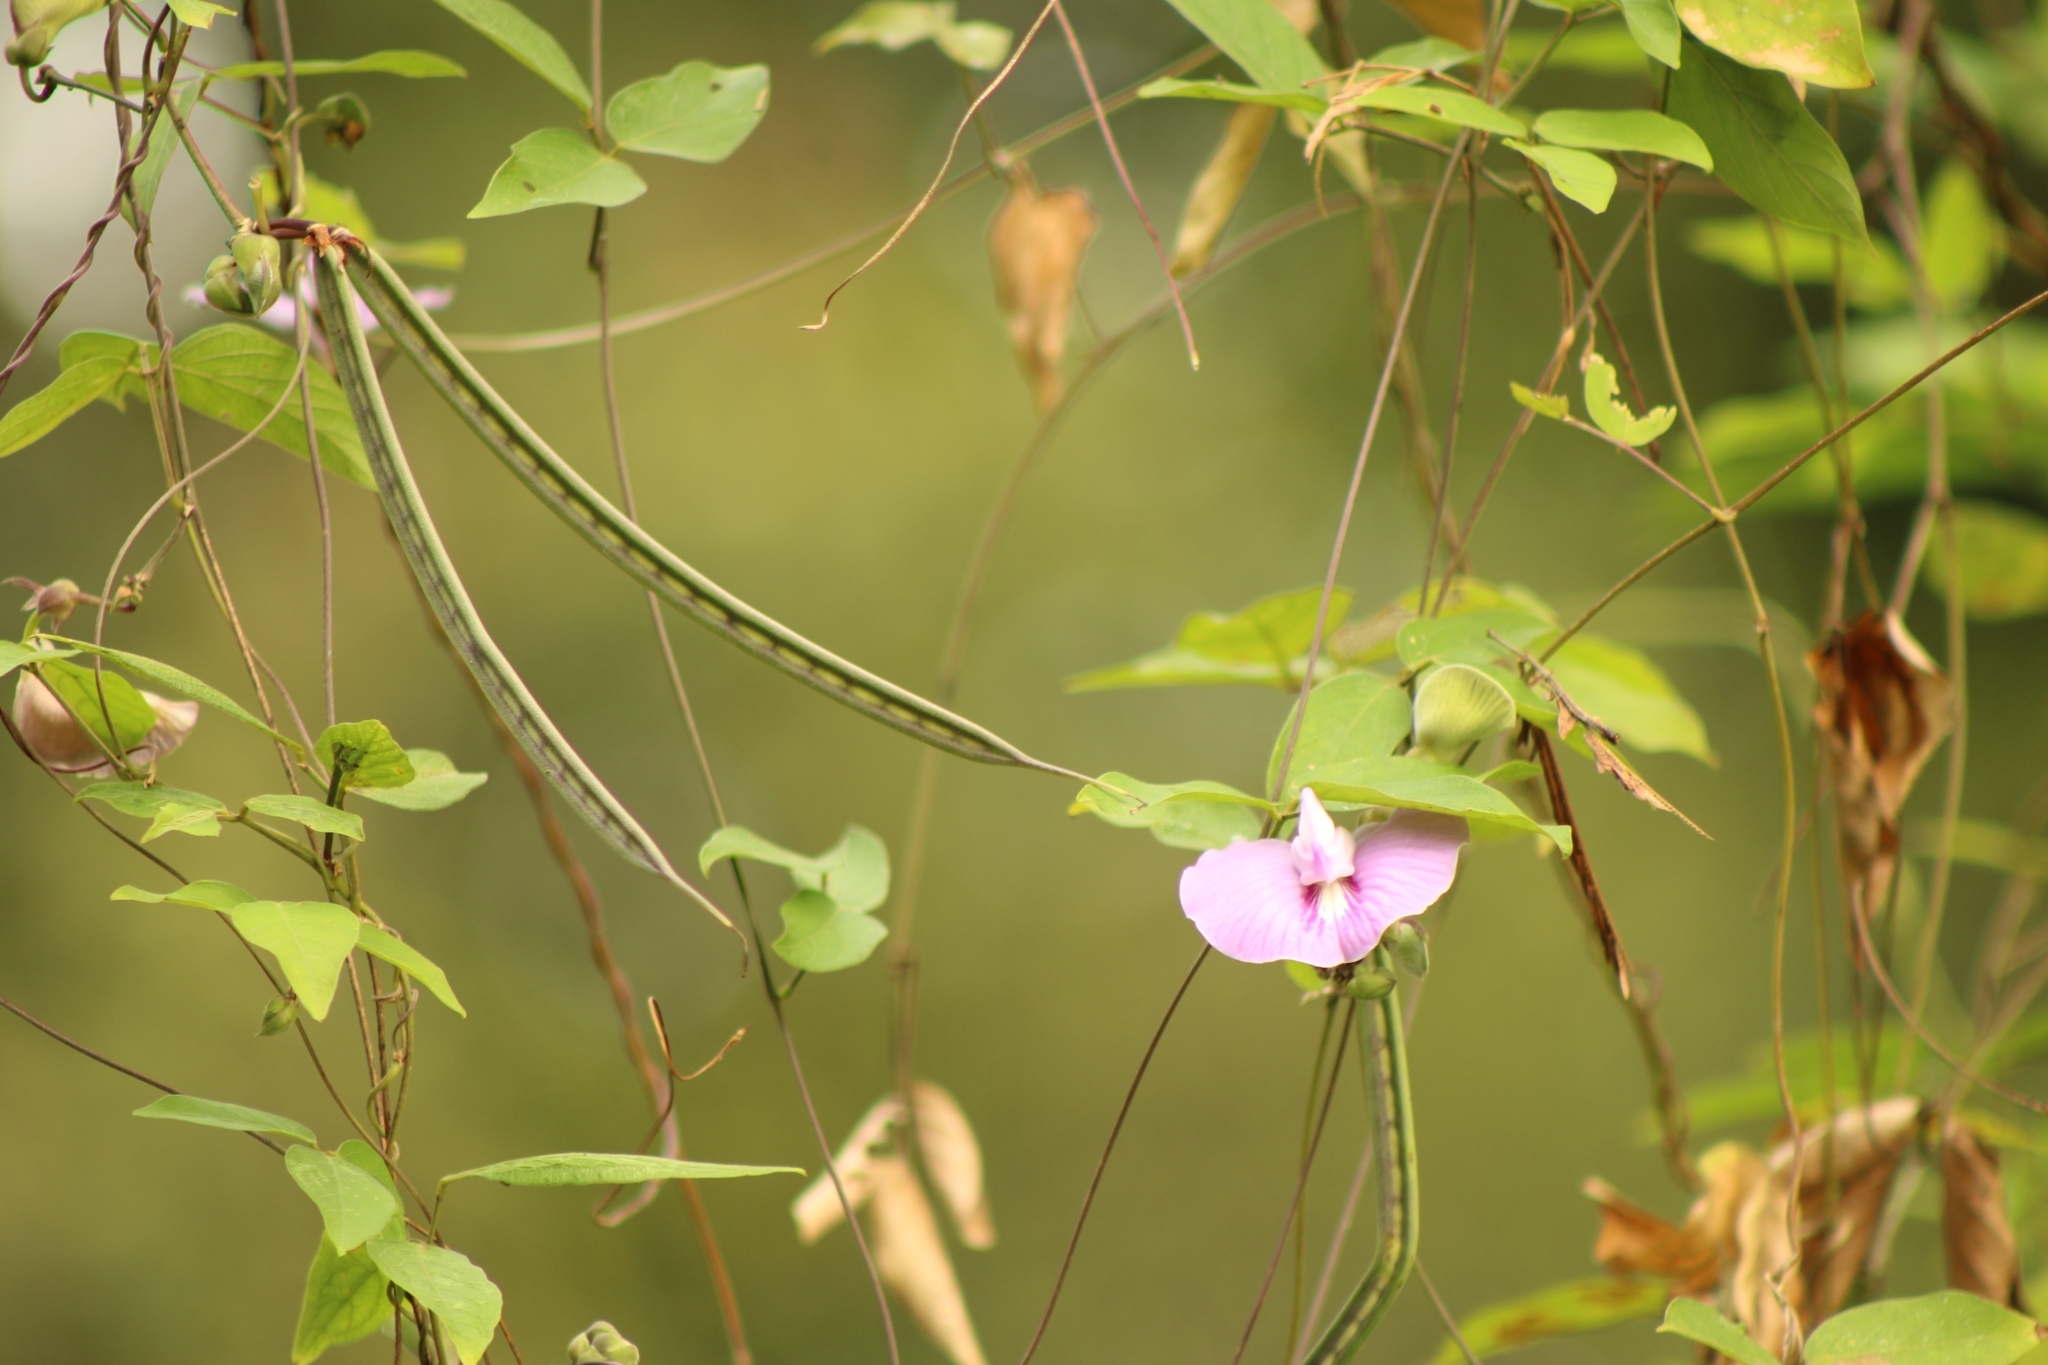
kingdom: Plantae
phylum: Tracheophyta
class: Magnoliopsida
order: Fabales
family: Fabaceae
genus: Centrosema
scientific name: Centrosema virginianum
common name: Butterfly-pea
